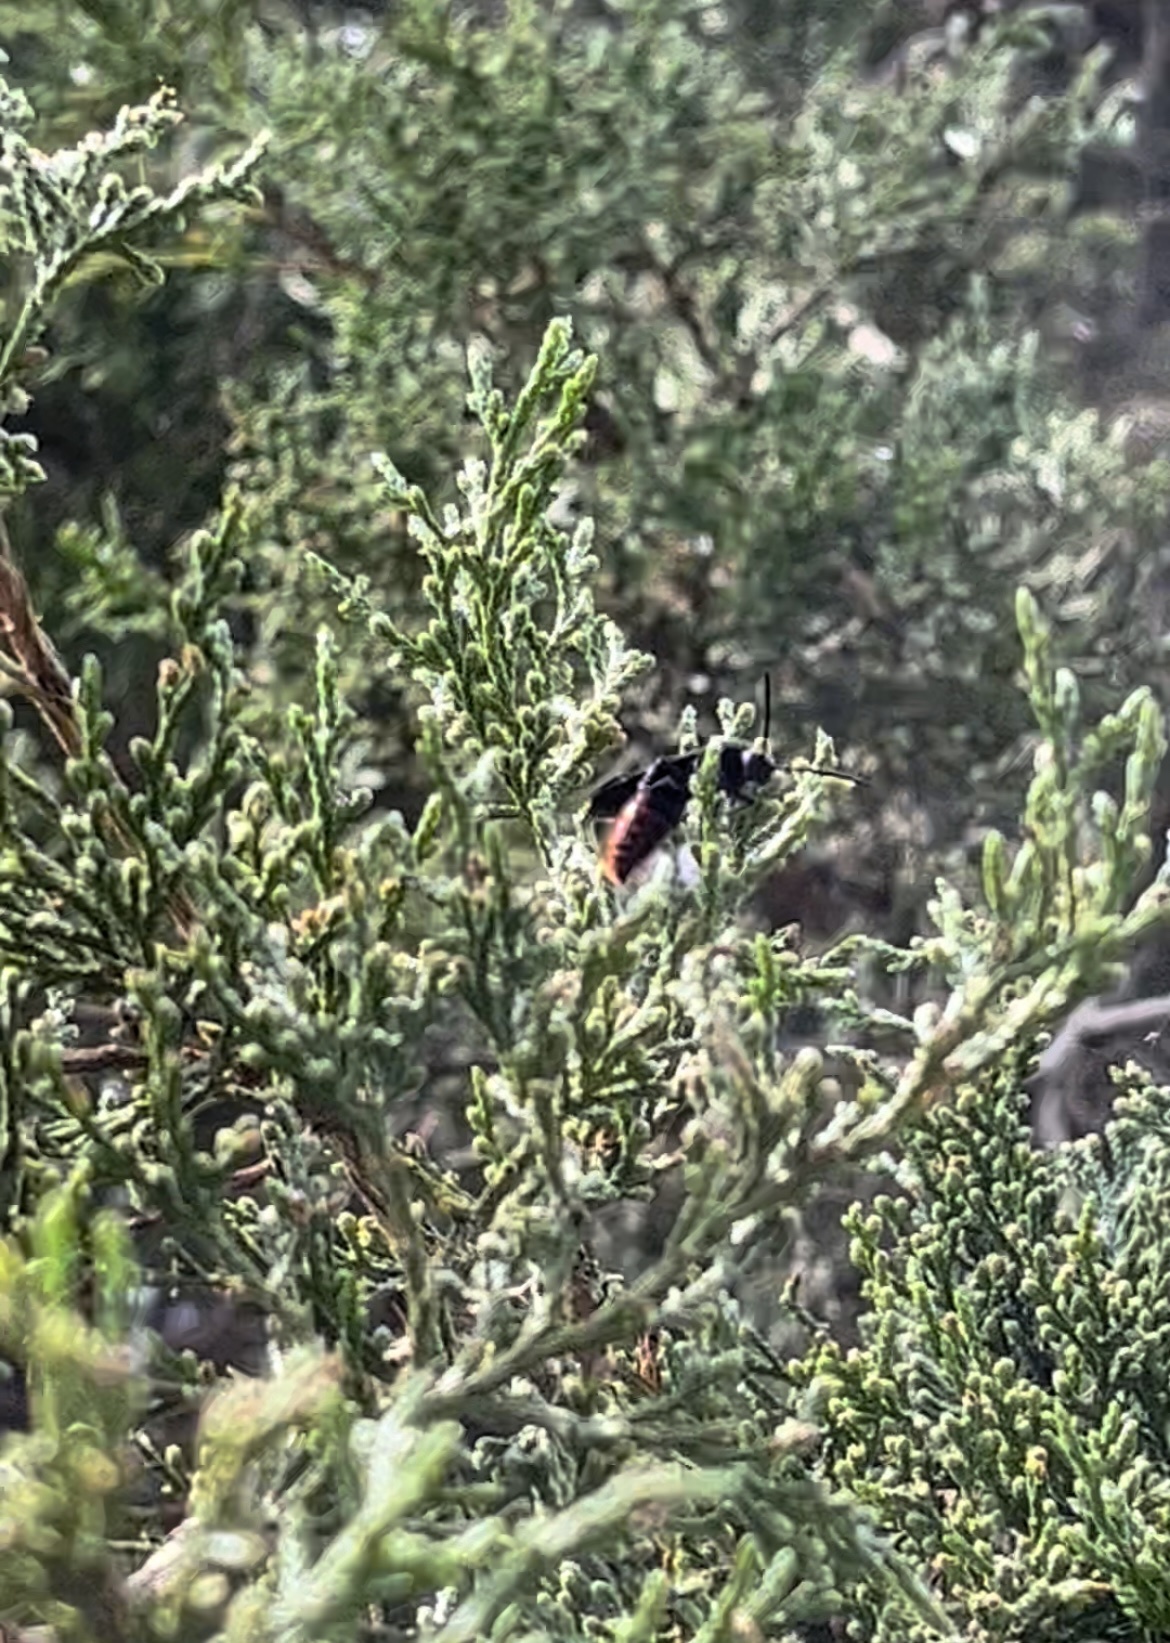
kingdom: Animalia
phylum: Arthropoda
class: Insecta
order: Hymenoptera
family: Scoliidae
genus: Scolia
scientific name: Scolia dubia
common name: Blue-winged scoliid wasp
